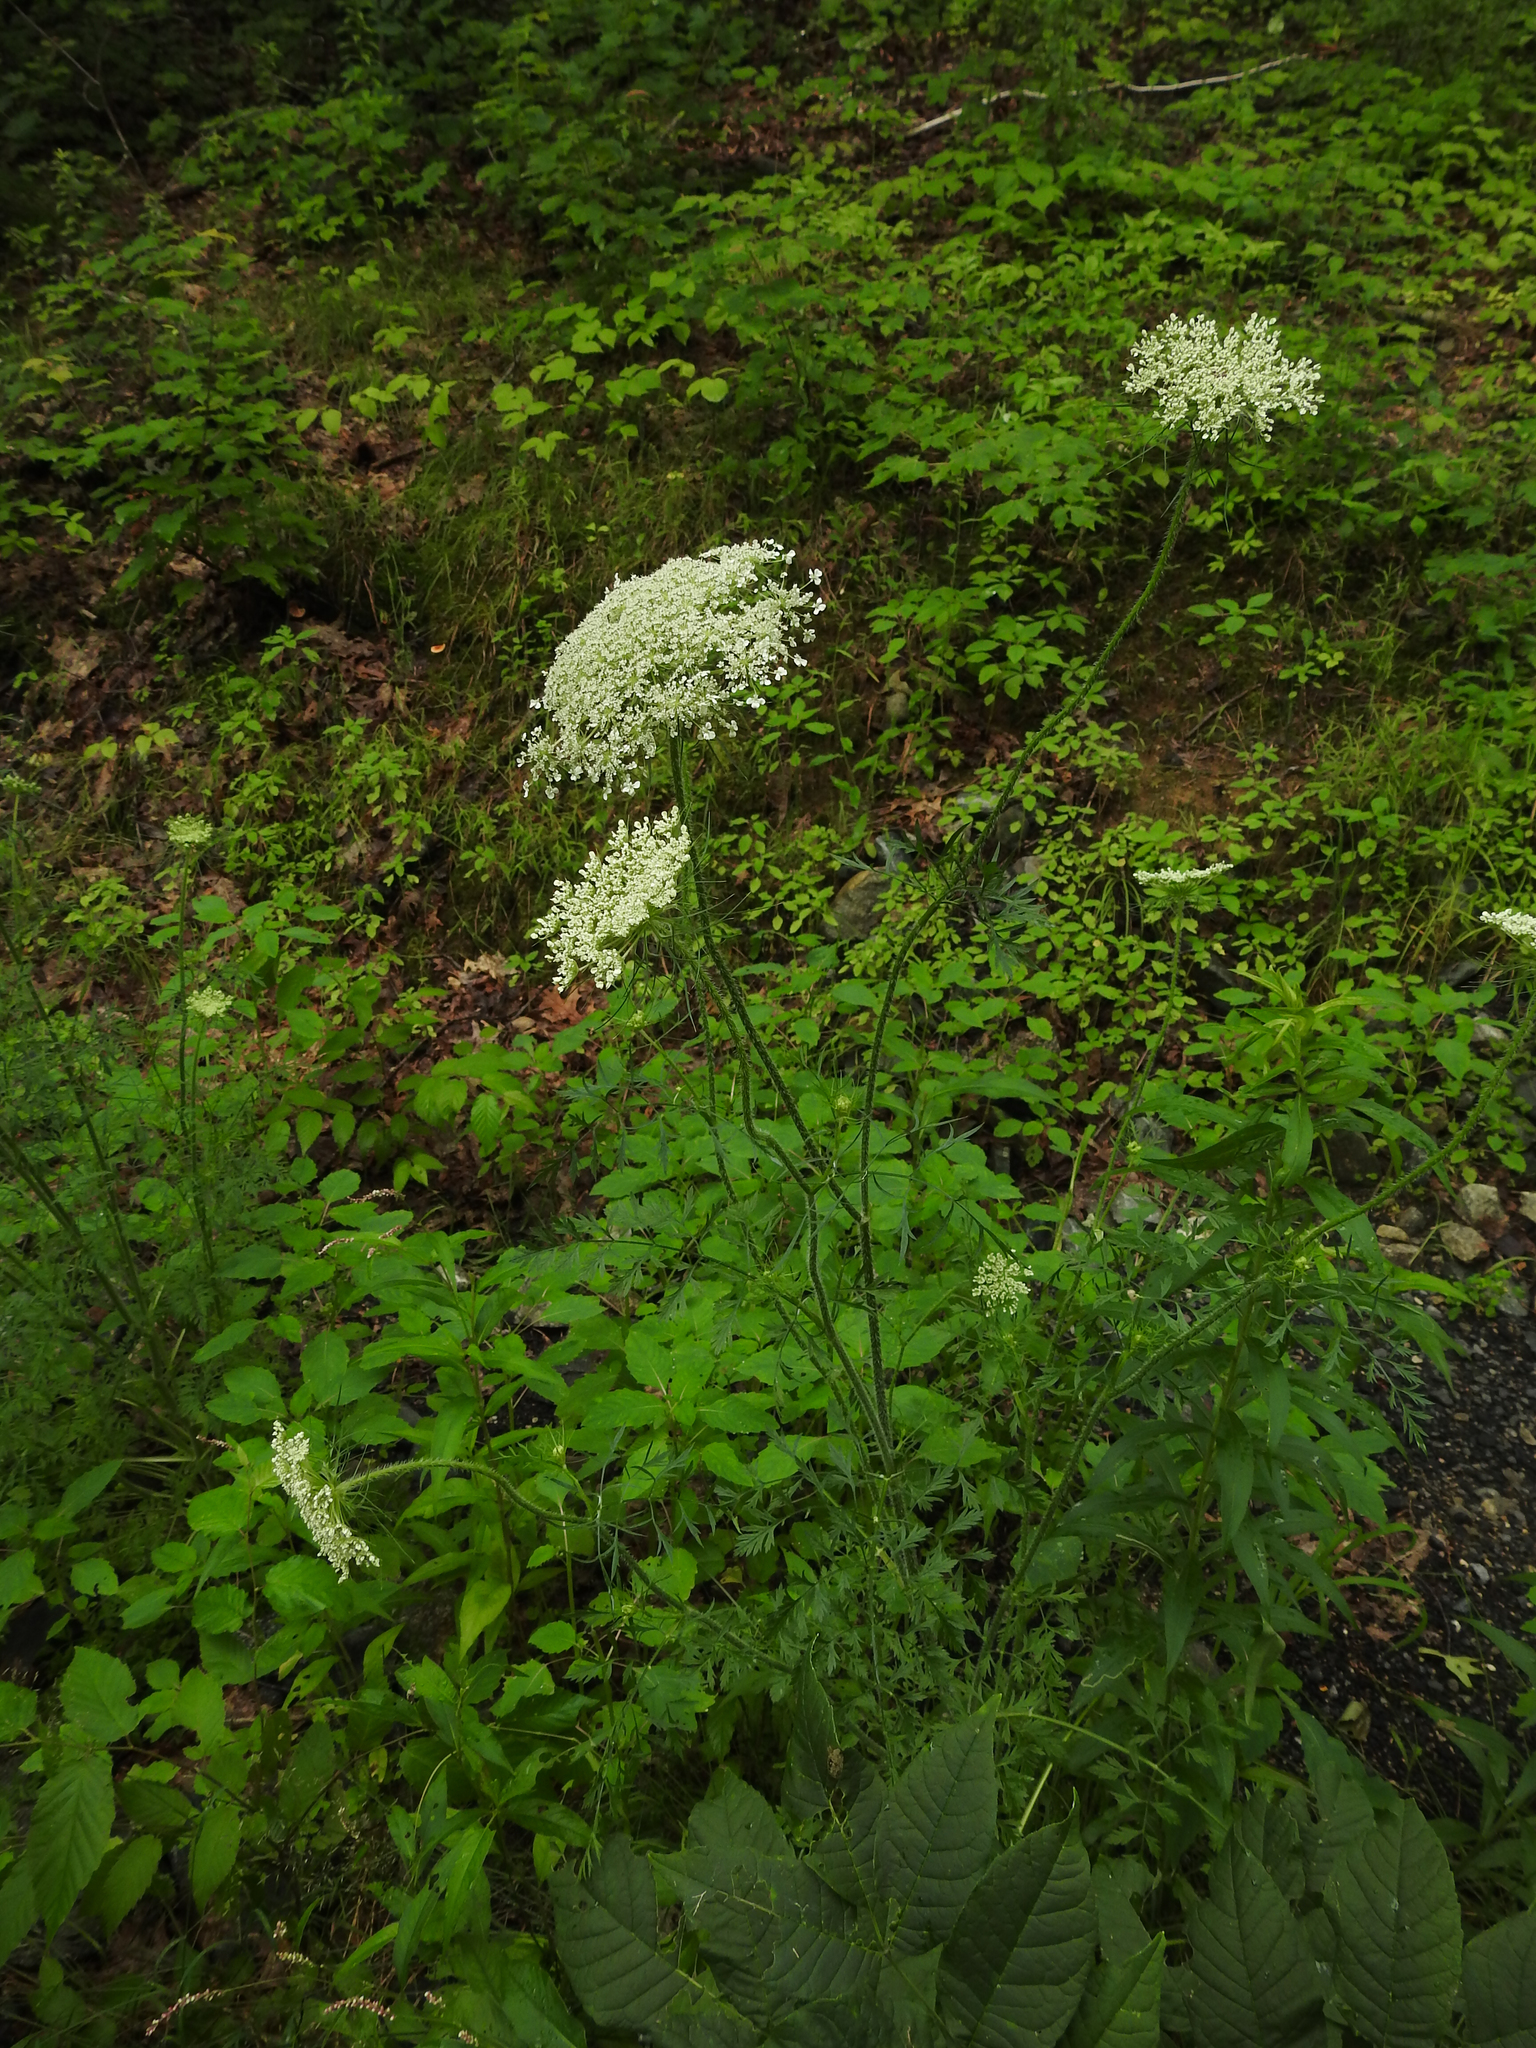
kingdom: Plantae
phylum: Tracheophyta
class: Magnoliopsida
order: Apiales
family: Apiaceae
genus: Daucus
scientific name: Daucus carota
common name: Wild carrot
